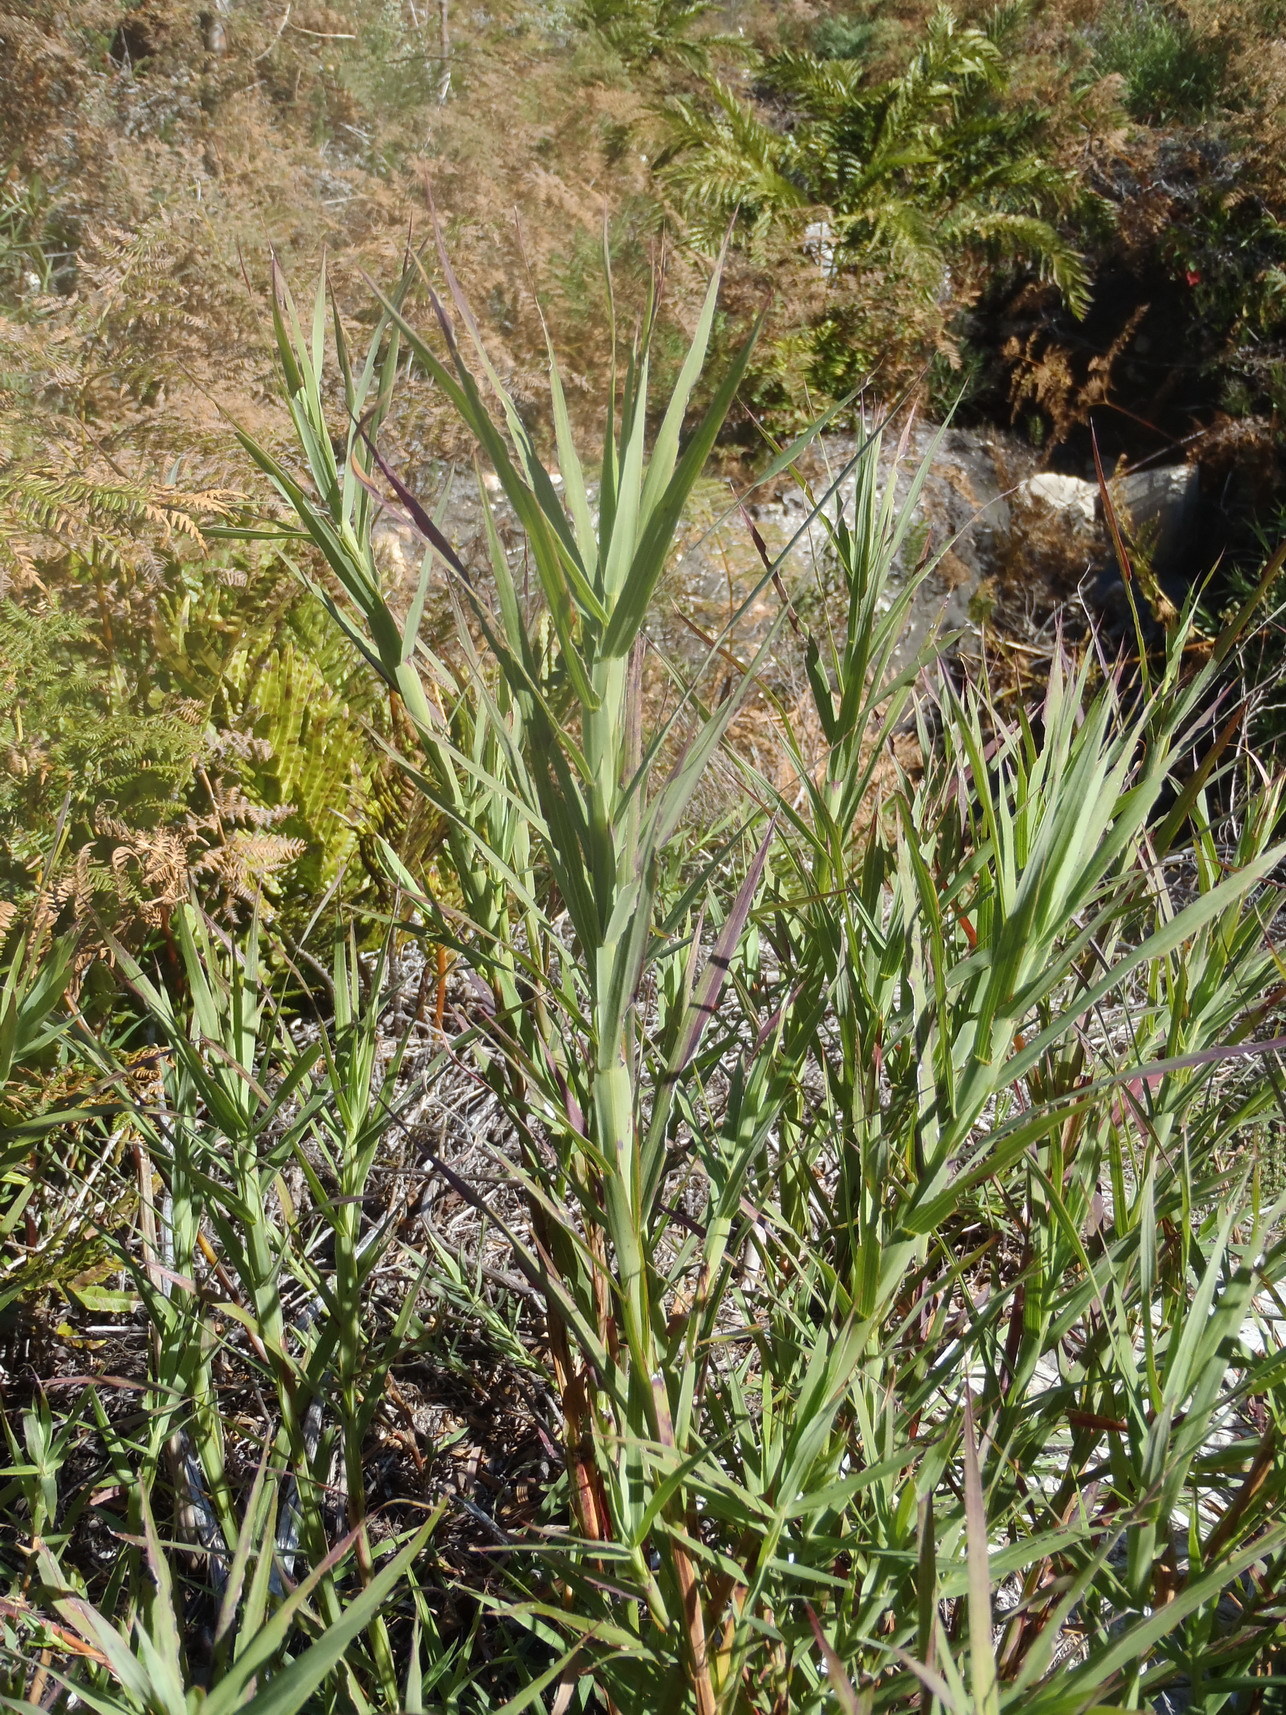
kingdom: Plantae
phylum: Tracheophyta
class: Magnoliopsida
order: Rosales
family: Rosaceae
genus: Cliffortia
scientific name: Cliffortia graminea
